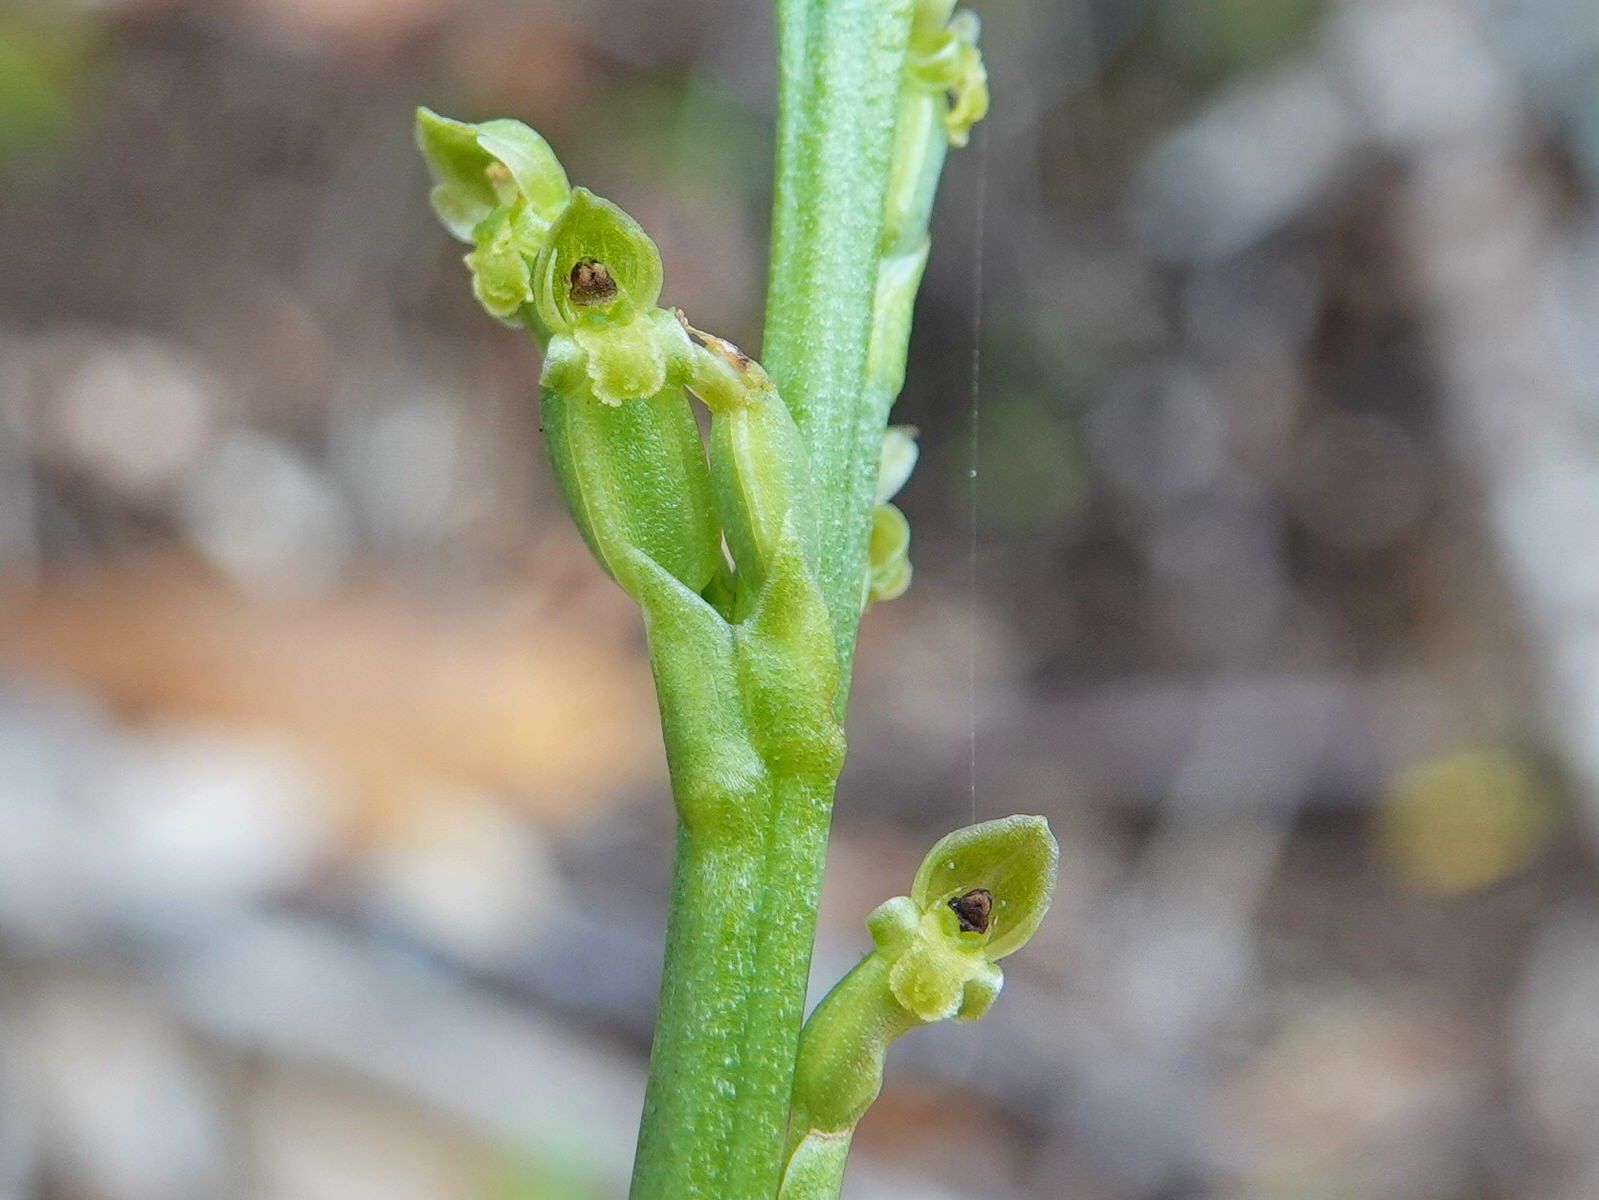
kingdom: Plantae
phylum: Tracheophyta
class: Liliopsida
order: Asparagales
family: Orchidaceae
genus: Microtis
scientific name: Microtis unifolia
